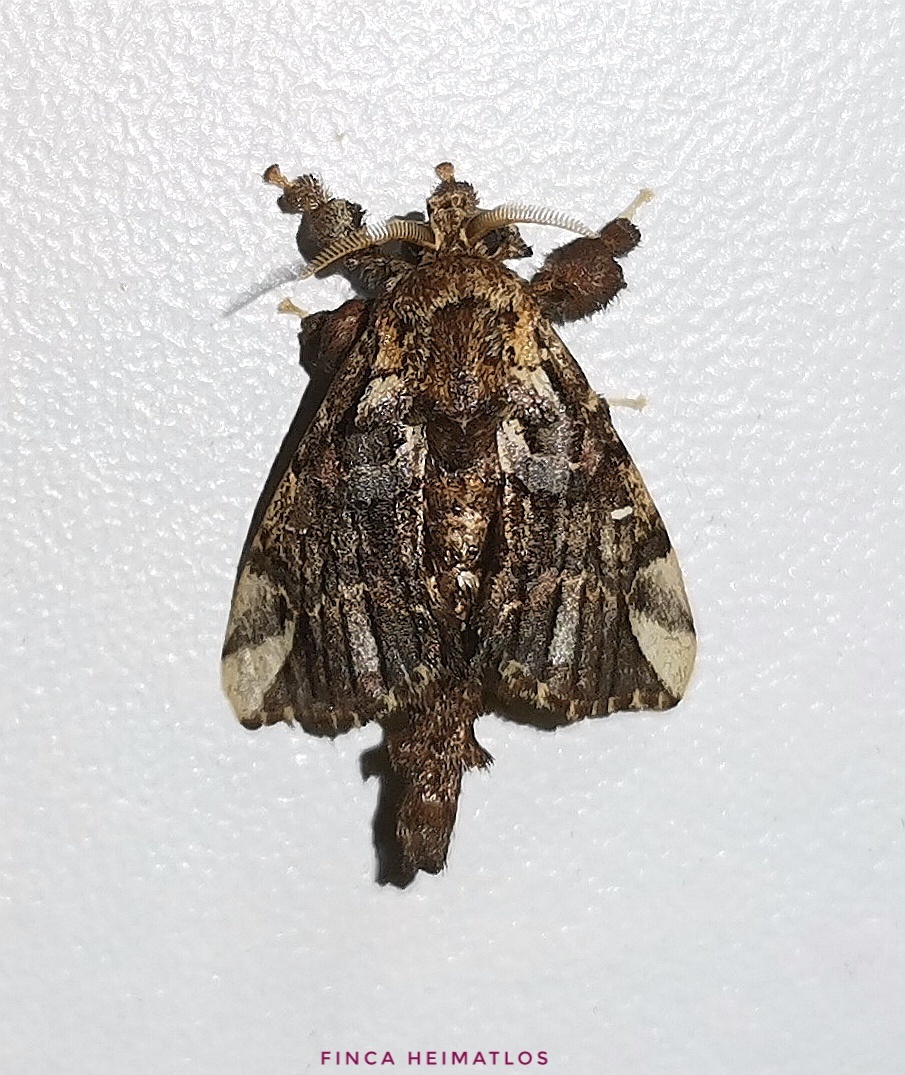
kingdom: Animalia
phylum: Arthropoda
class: Insecta
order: Lepidoptera
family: Bombycidae
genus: Tamphana
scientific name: Tamphana marmorea
